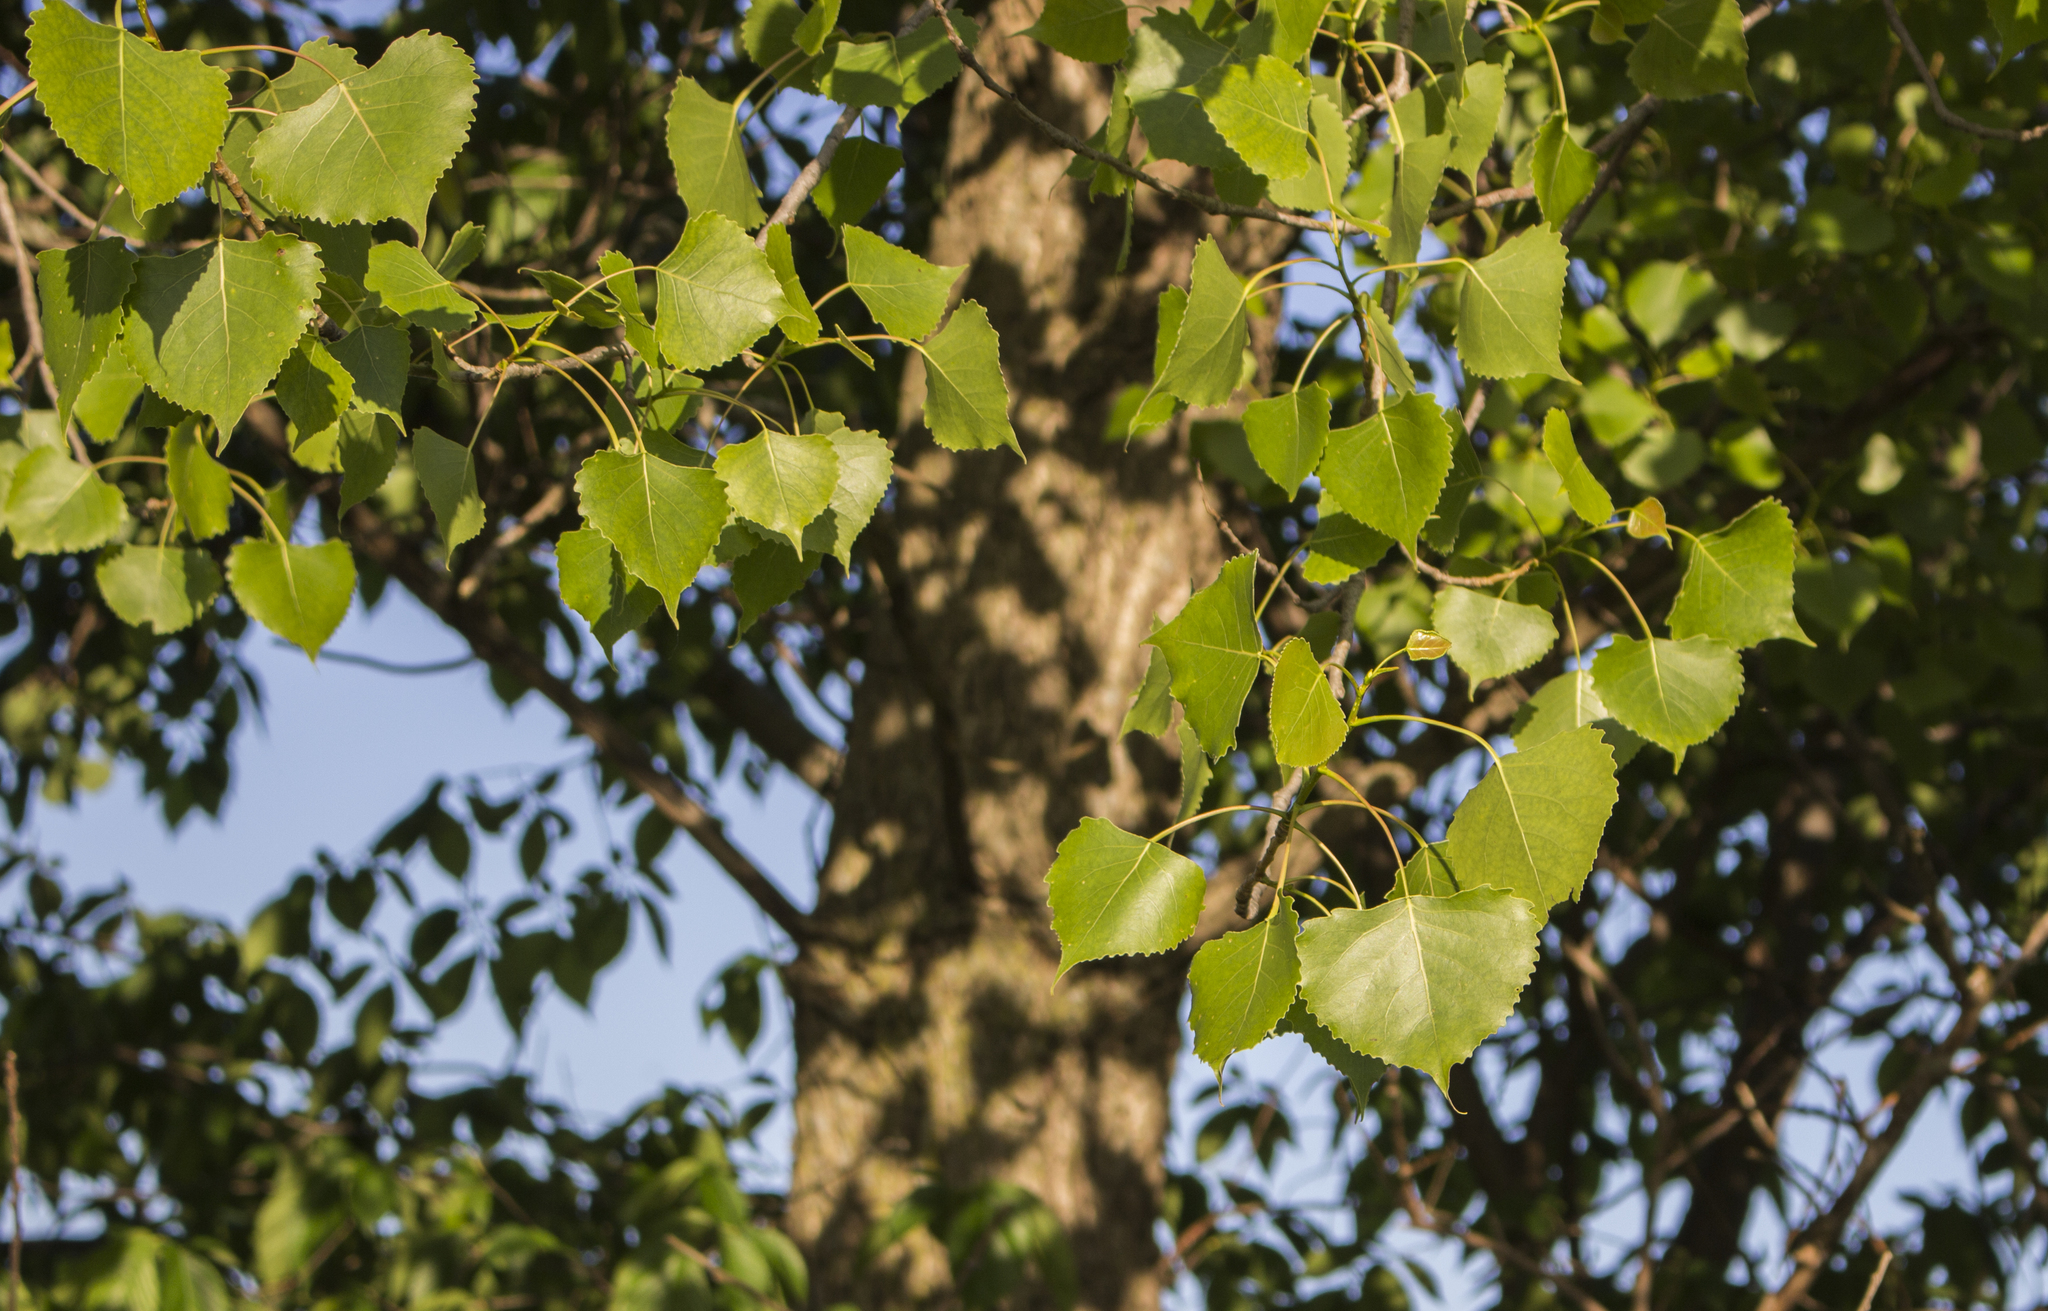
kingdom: Plantae
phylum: Tracheophyta
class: Magnoliopsida
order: Malpighiales
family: Salicaceae
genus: Populus
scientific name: Populus deltoides
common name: Eastern cottonwood
